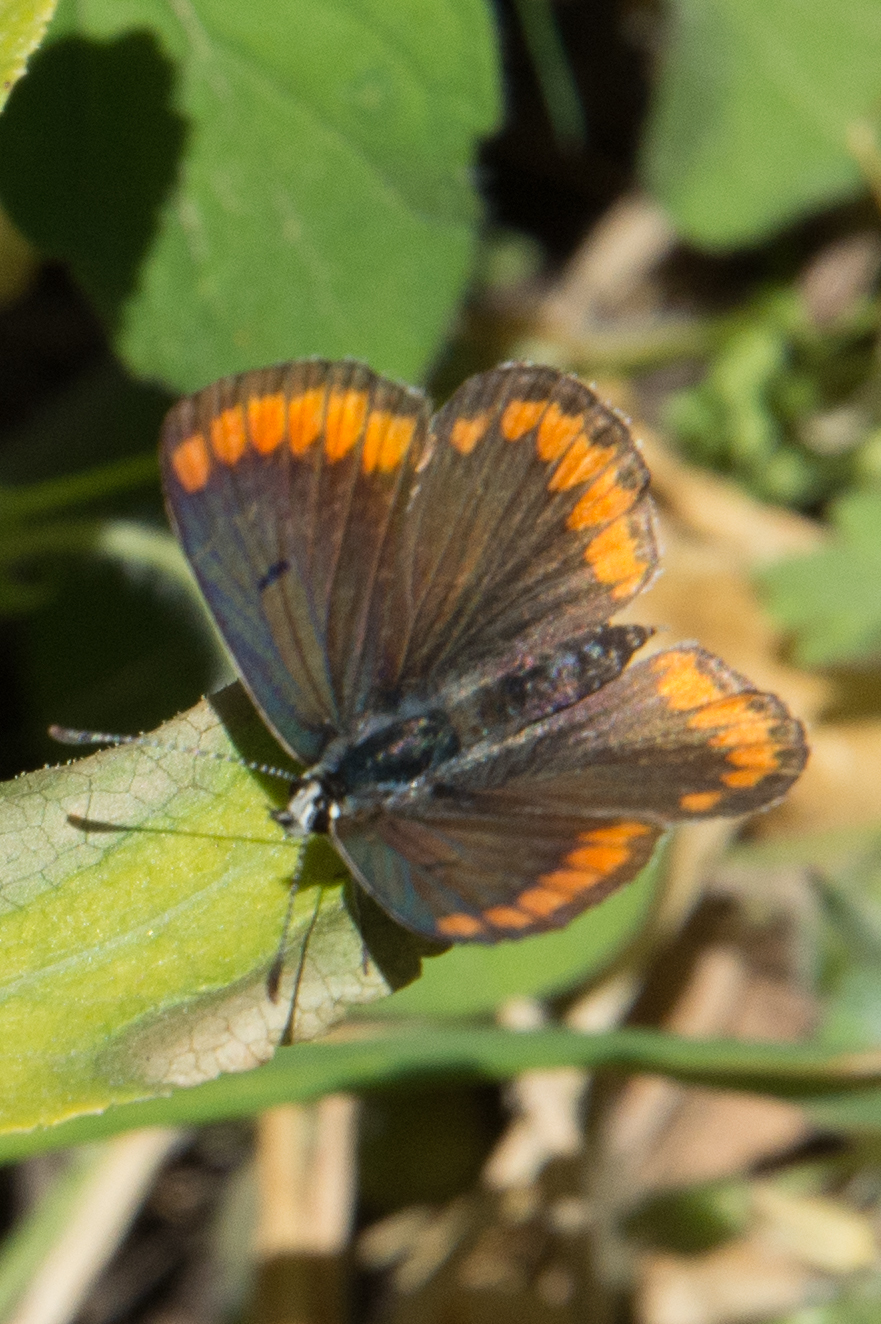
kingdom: Animalia
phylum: Arthropoda
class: Insecta
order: Lepidoptera
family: Lycaenidae
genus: Aricia
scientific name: Aricia agestis
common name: Brown argus
